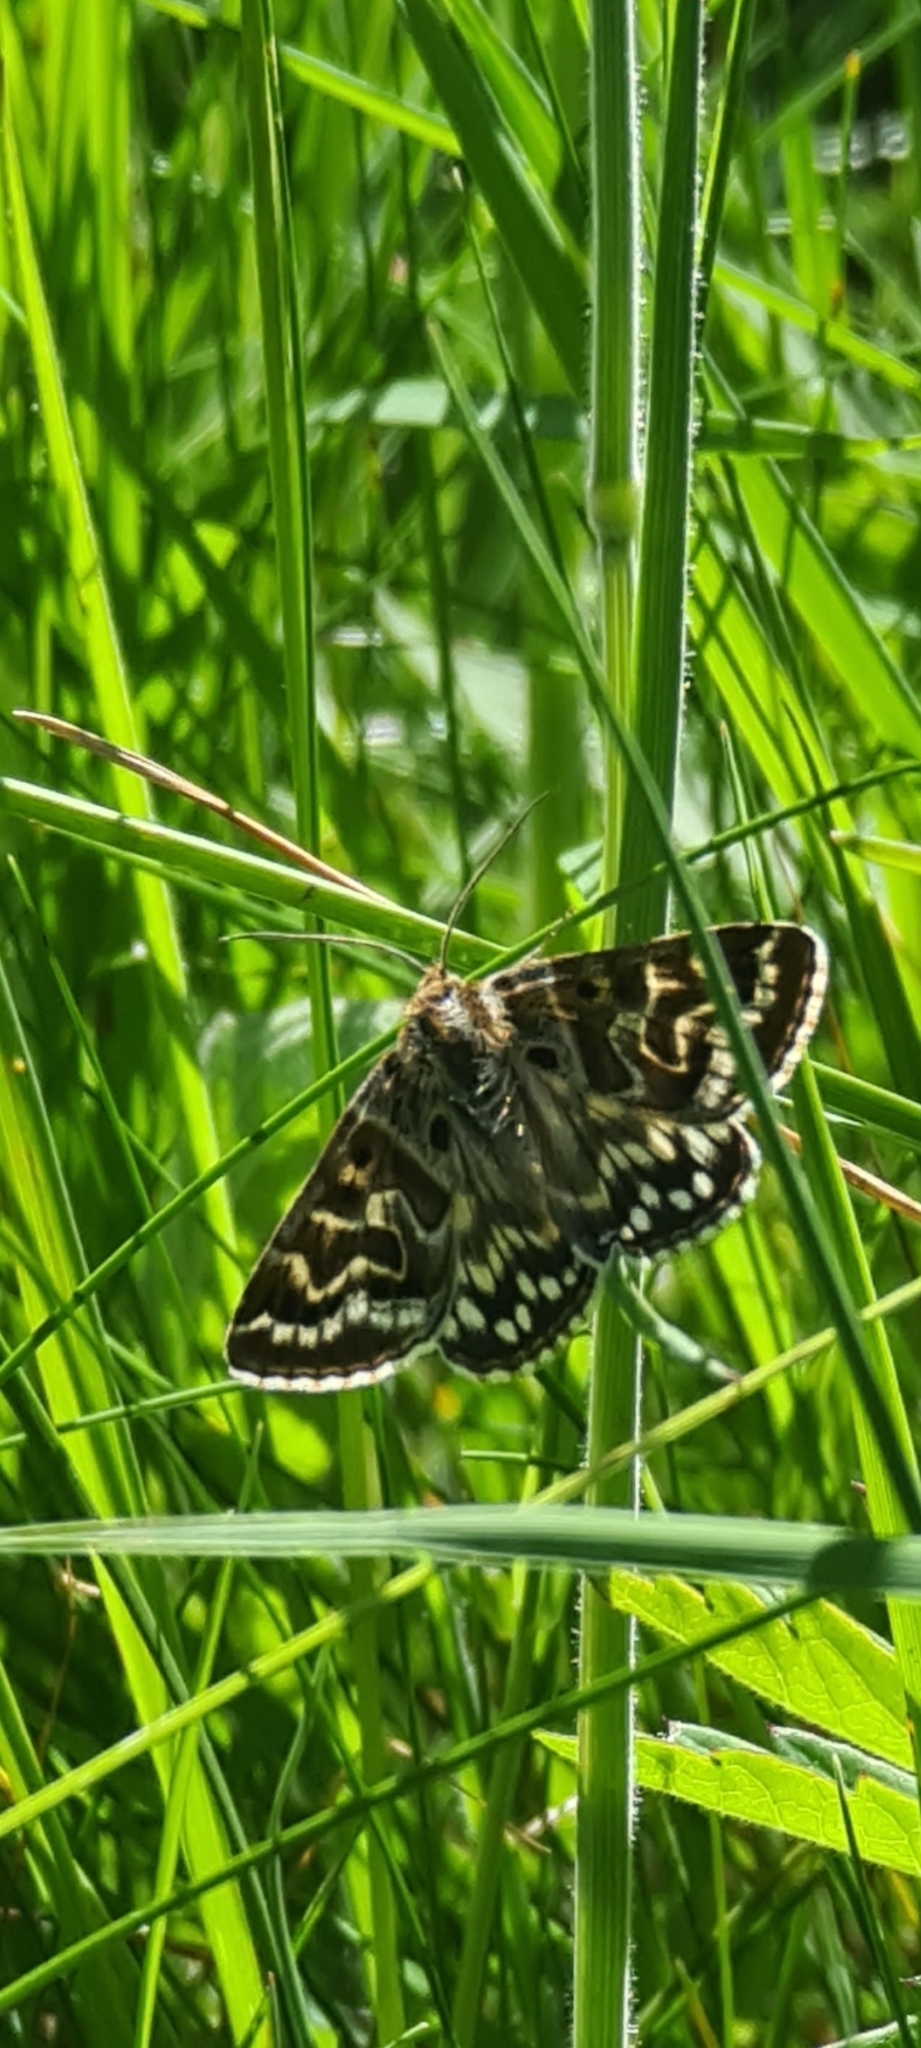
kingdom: Animalia
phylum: Arthropoda
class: Insecta
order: Lepidoptera
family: Erebidae
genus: Callistege
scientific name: Callistege mi
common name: Mother shipton
